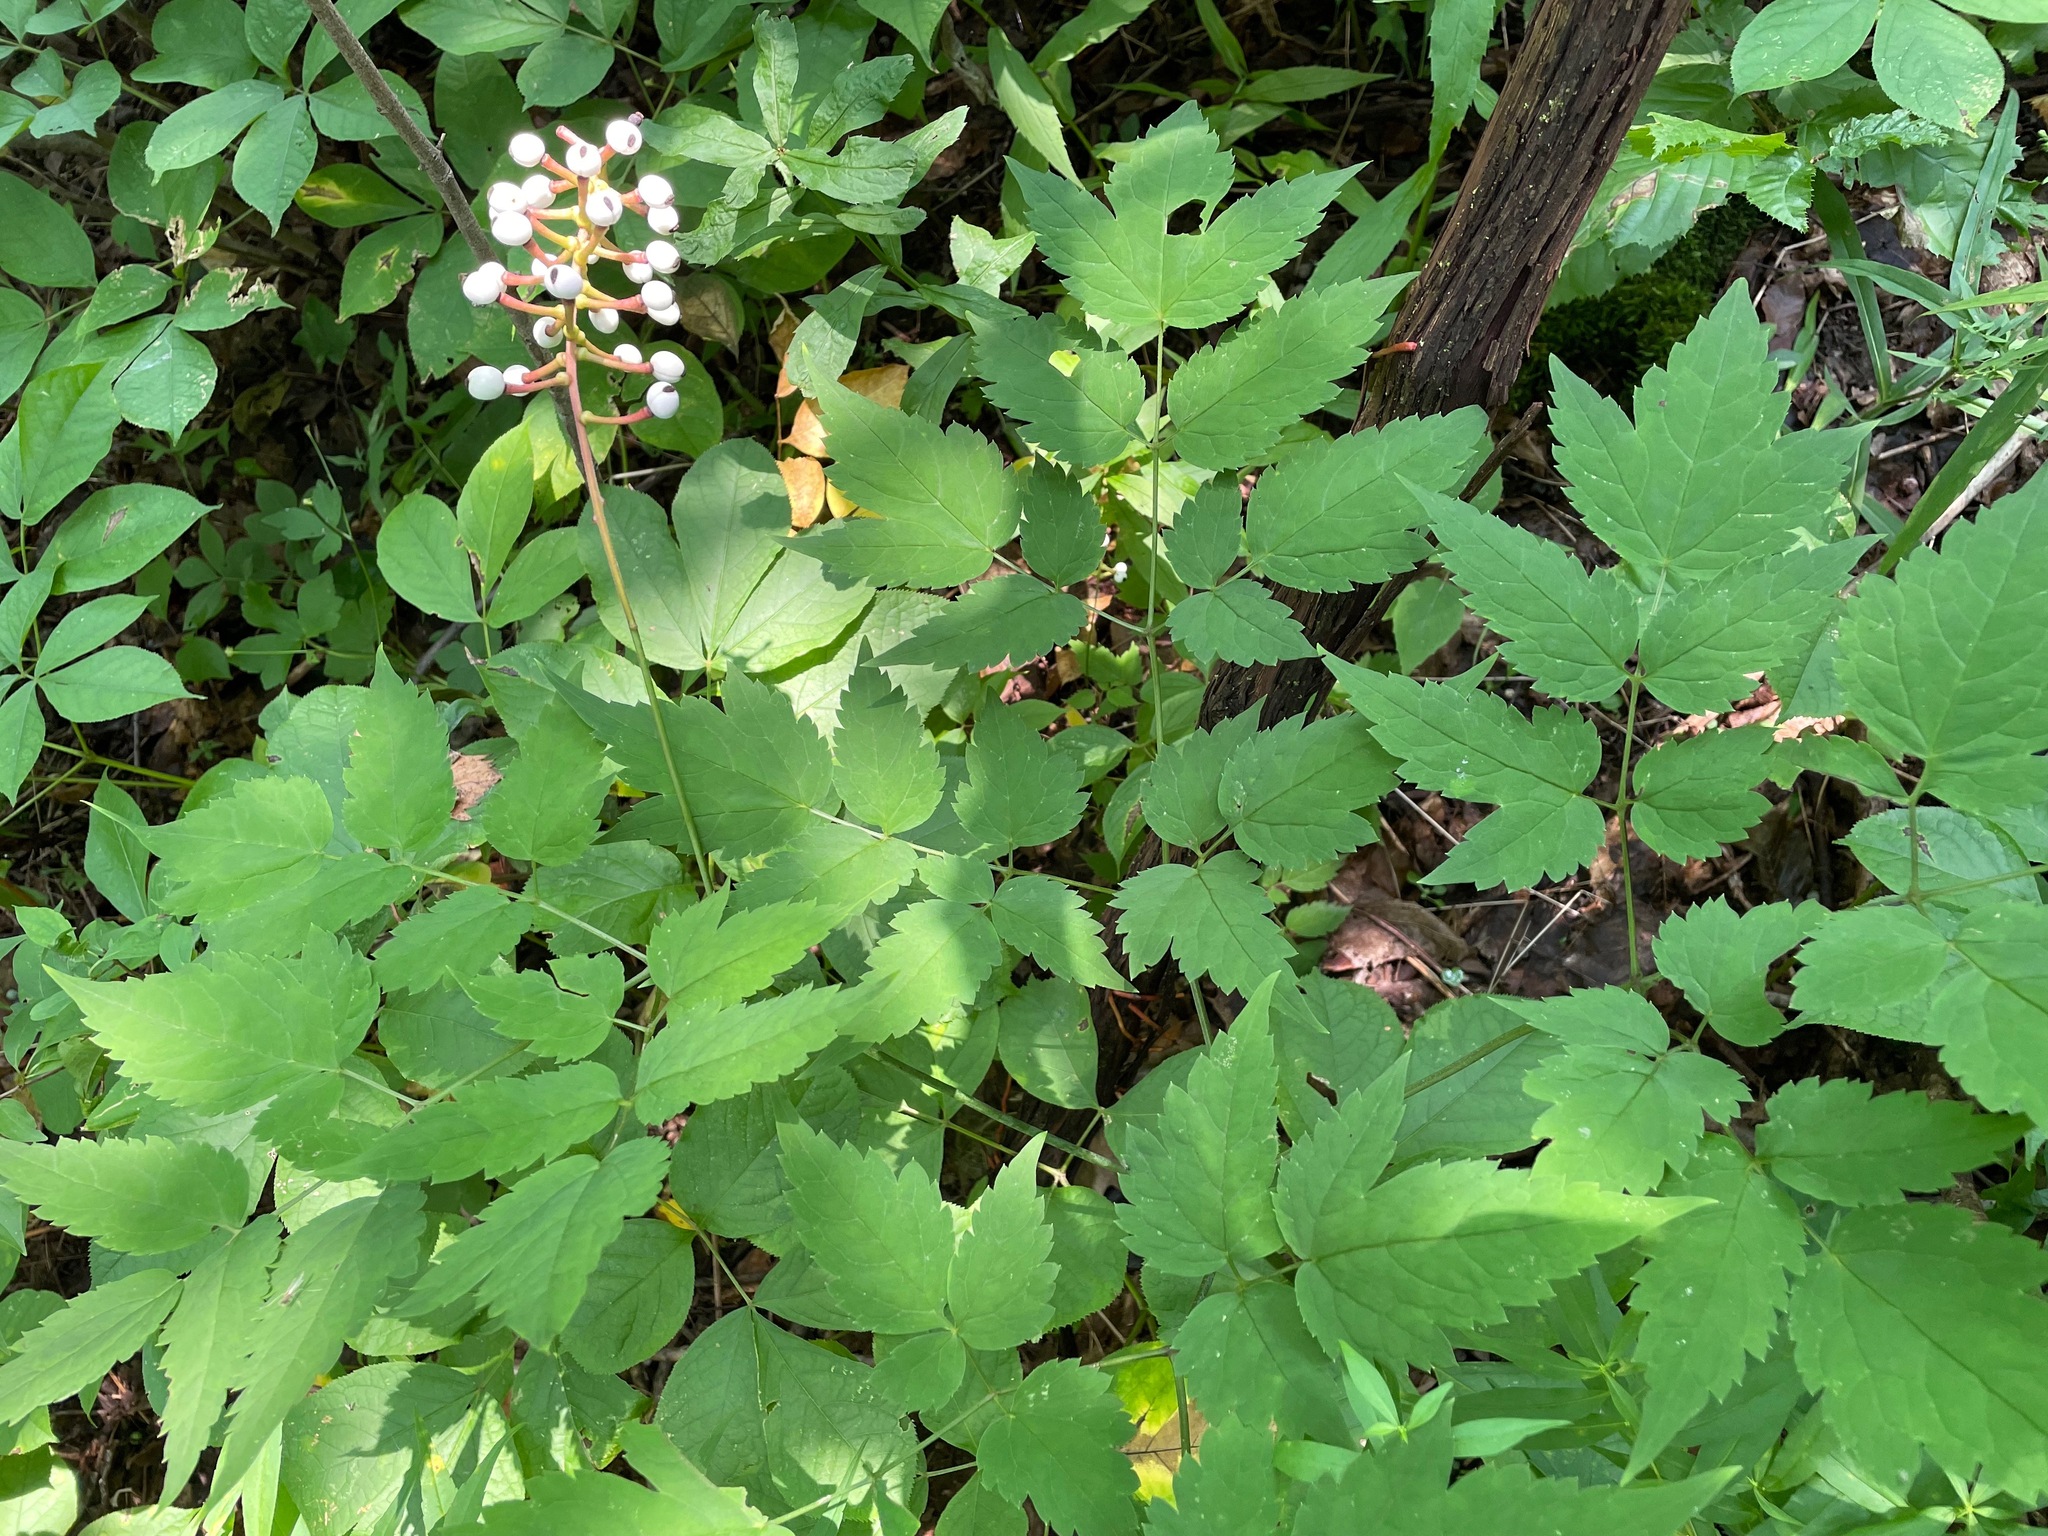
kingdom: Plantae
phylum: Tracheophyta
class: Magnoliopsida
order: Ranunculales
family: Ranunculaceae
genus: Actaea
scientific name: Actaea pachypoda
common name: Doll's-eyes
